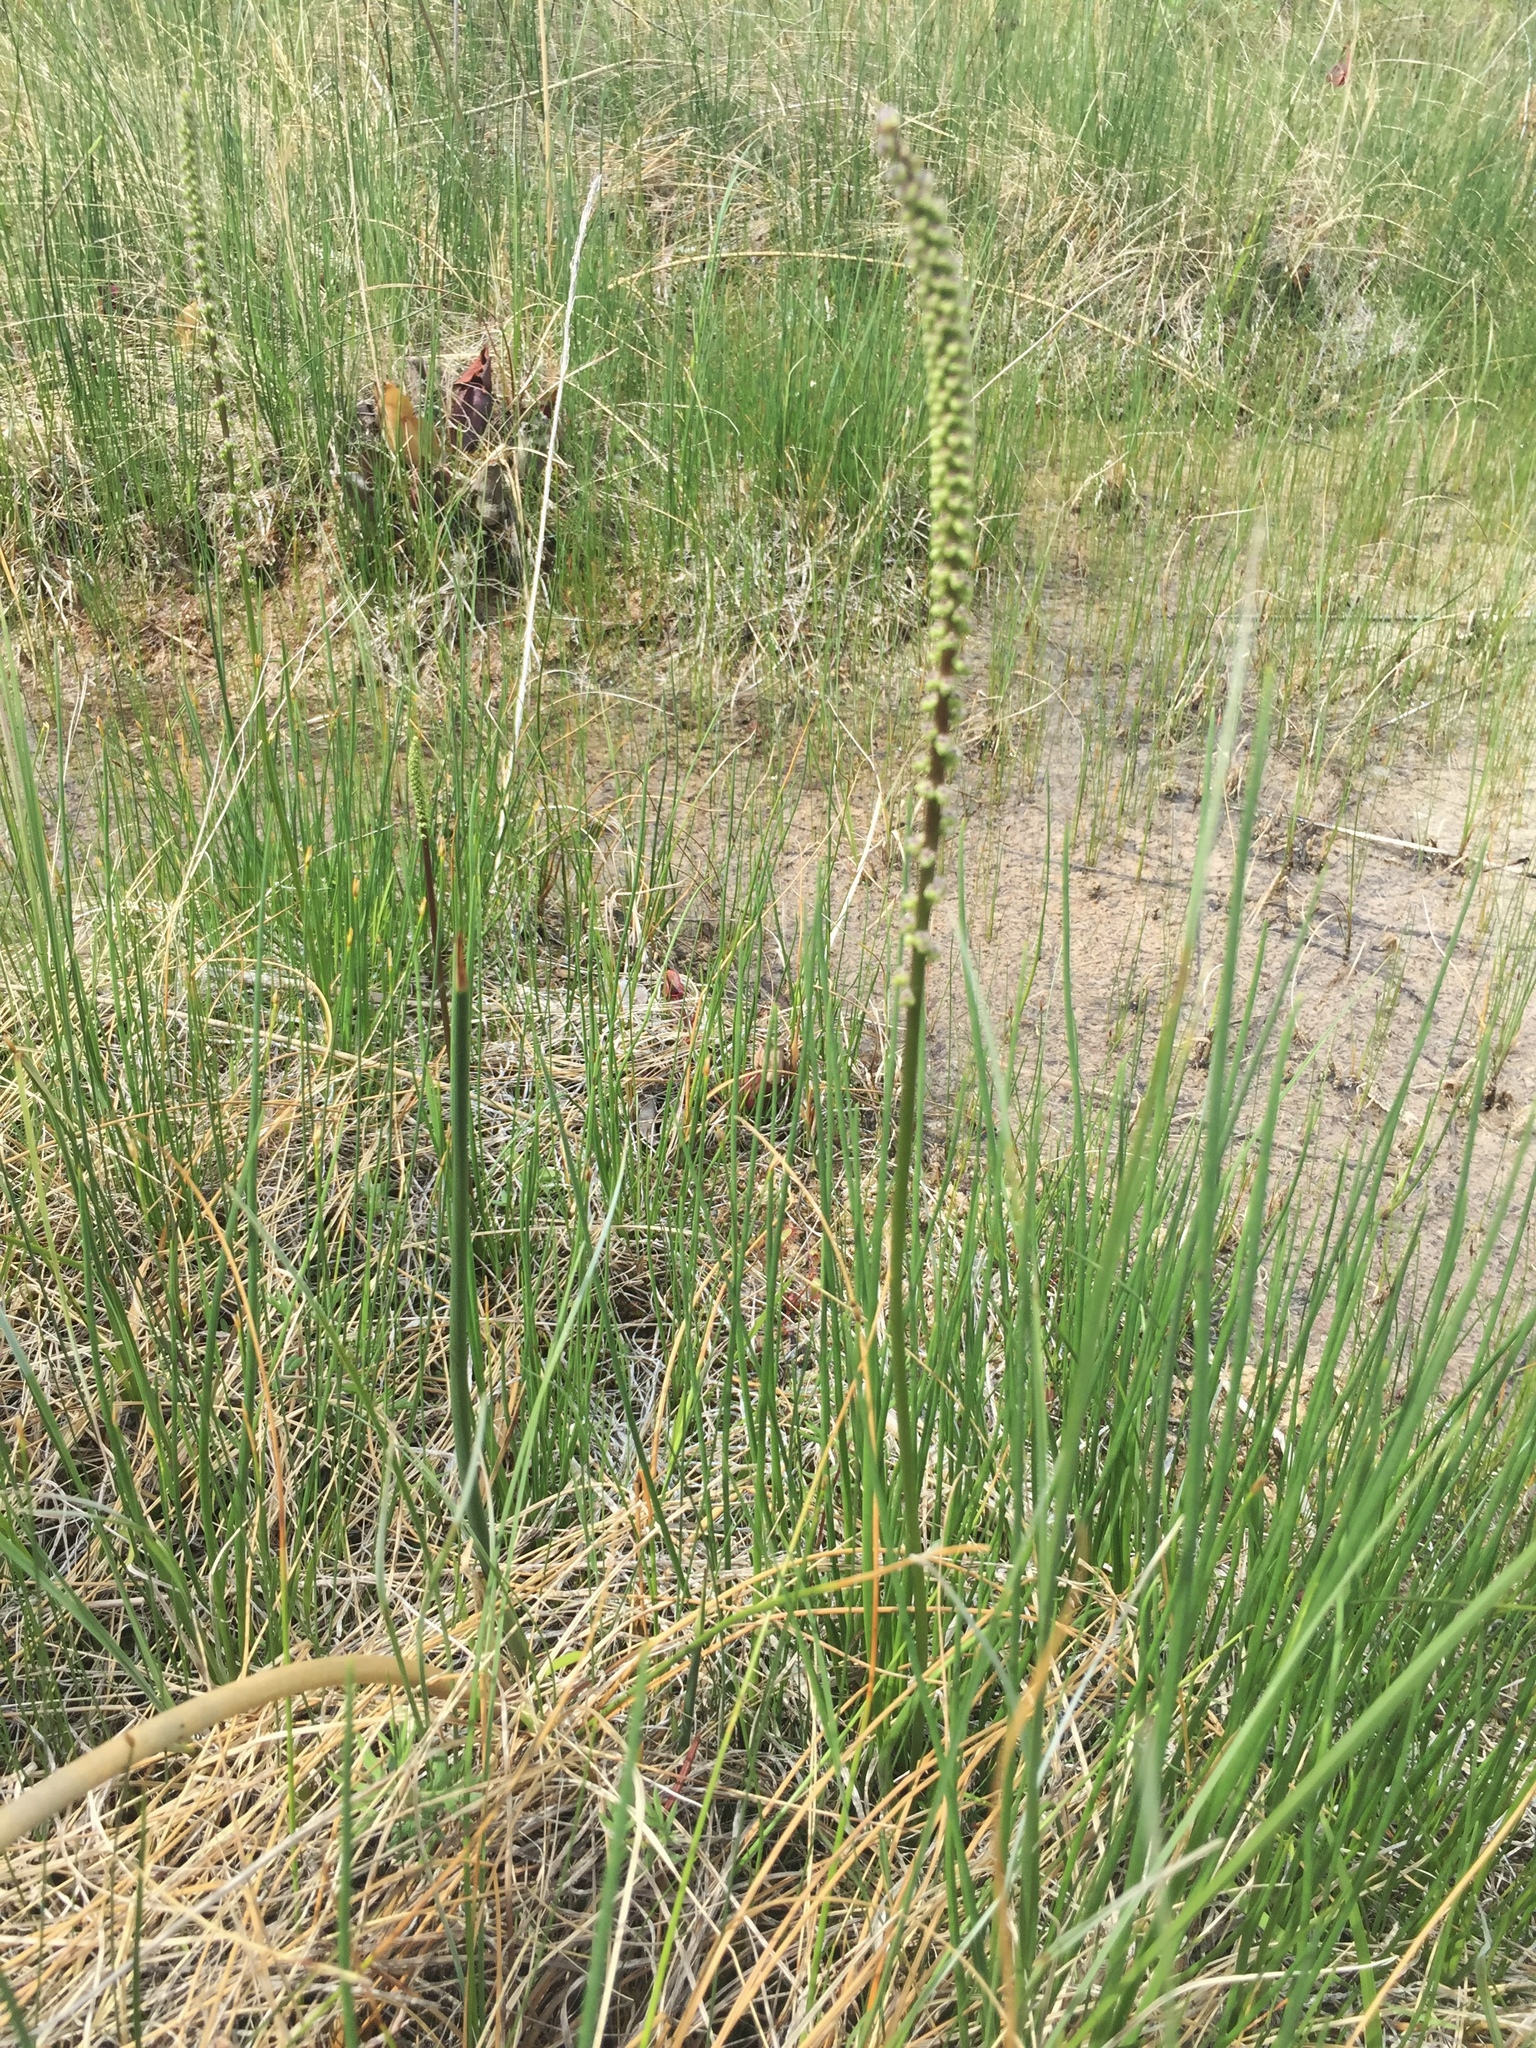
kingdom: Plantae
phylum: Tracheophyta
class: Liliopsida
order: Alismatales
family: Juncaginaceae
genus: Triglochin
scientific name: Triglochin maritima
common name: Sea arrowgrass
